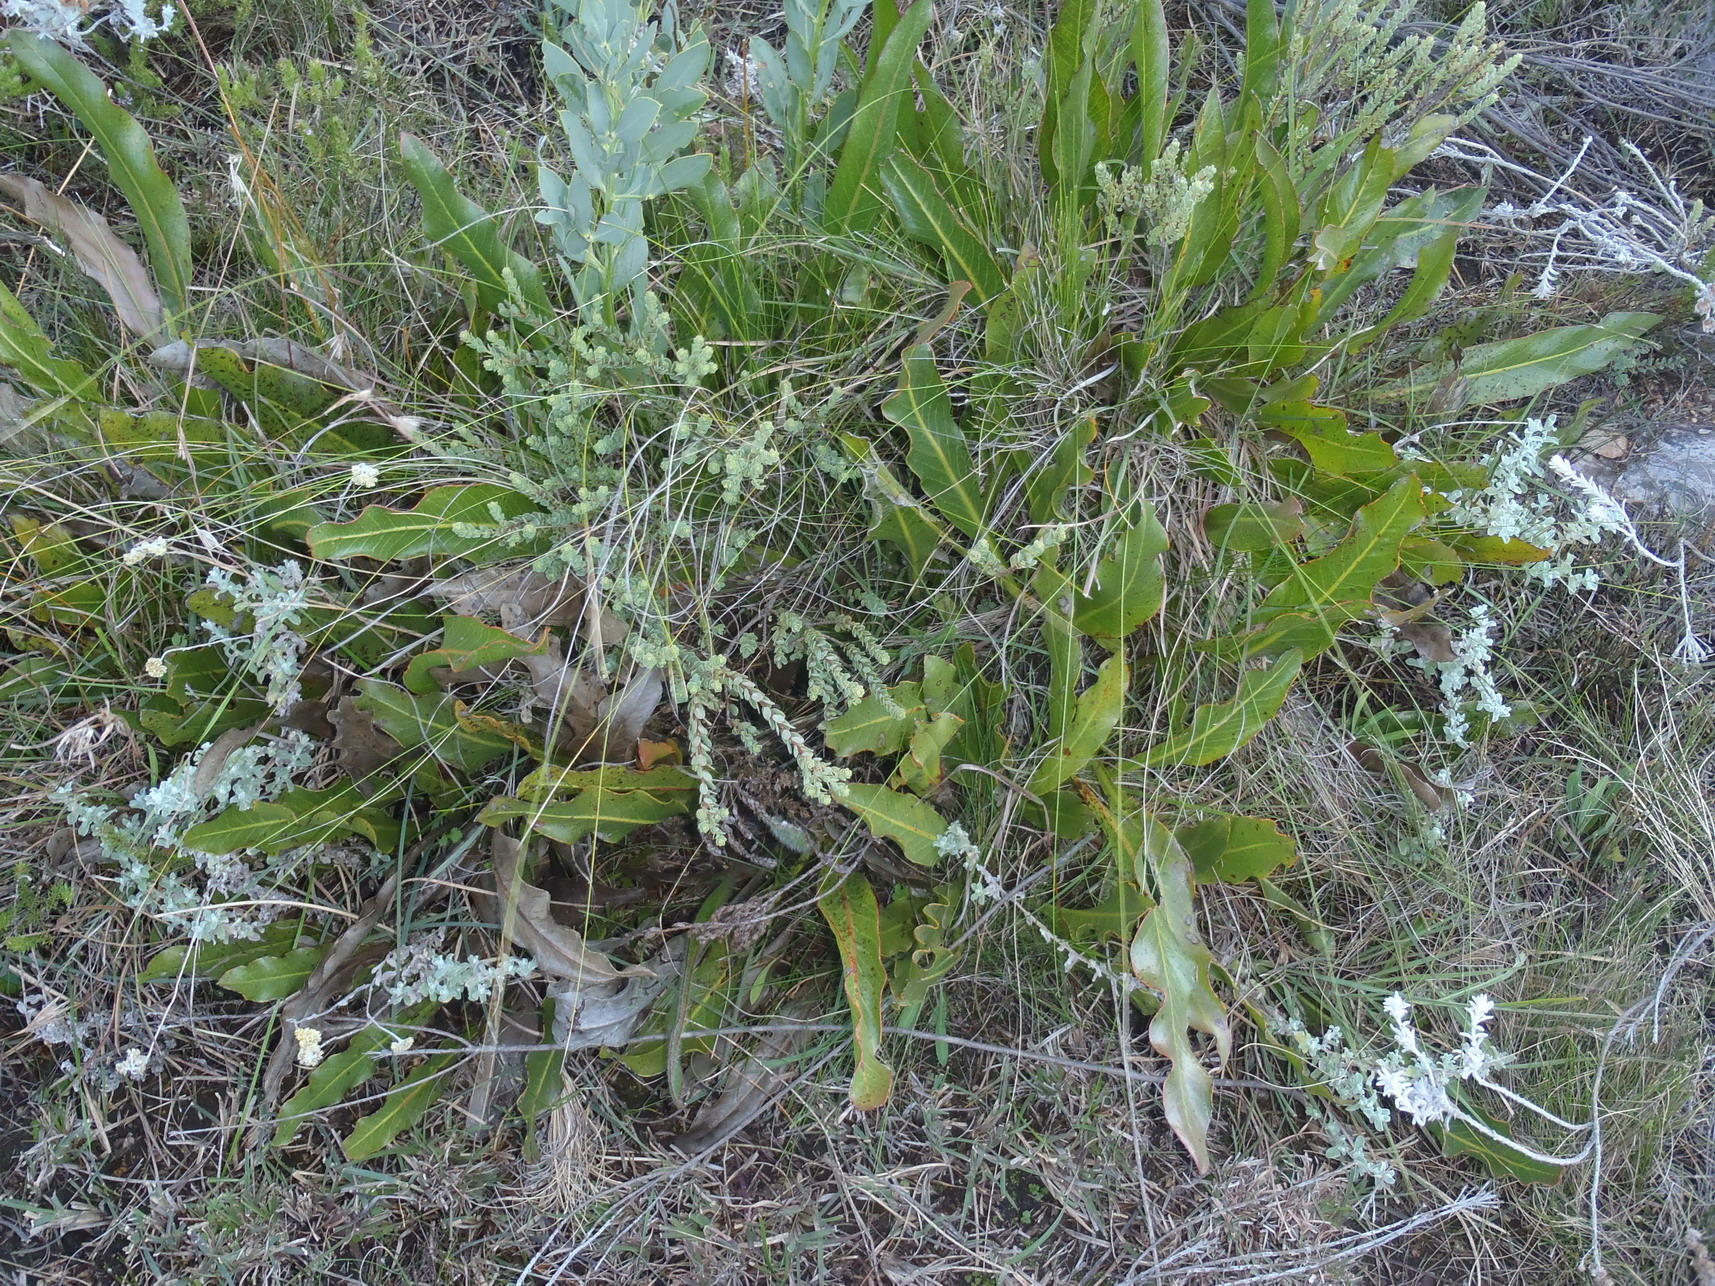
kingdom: Plantae
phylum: Tracheophyta
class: Magnoliopsida
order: Proteales
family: Proteaceae
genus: Protea
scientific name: Protea scolopendriifolia
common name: Harts-tongue-fern sugarbush
